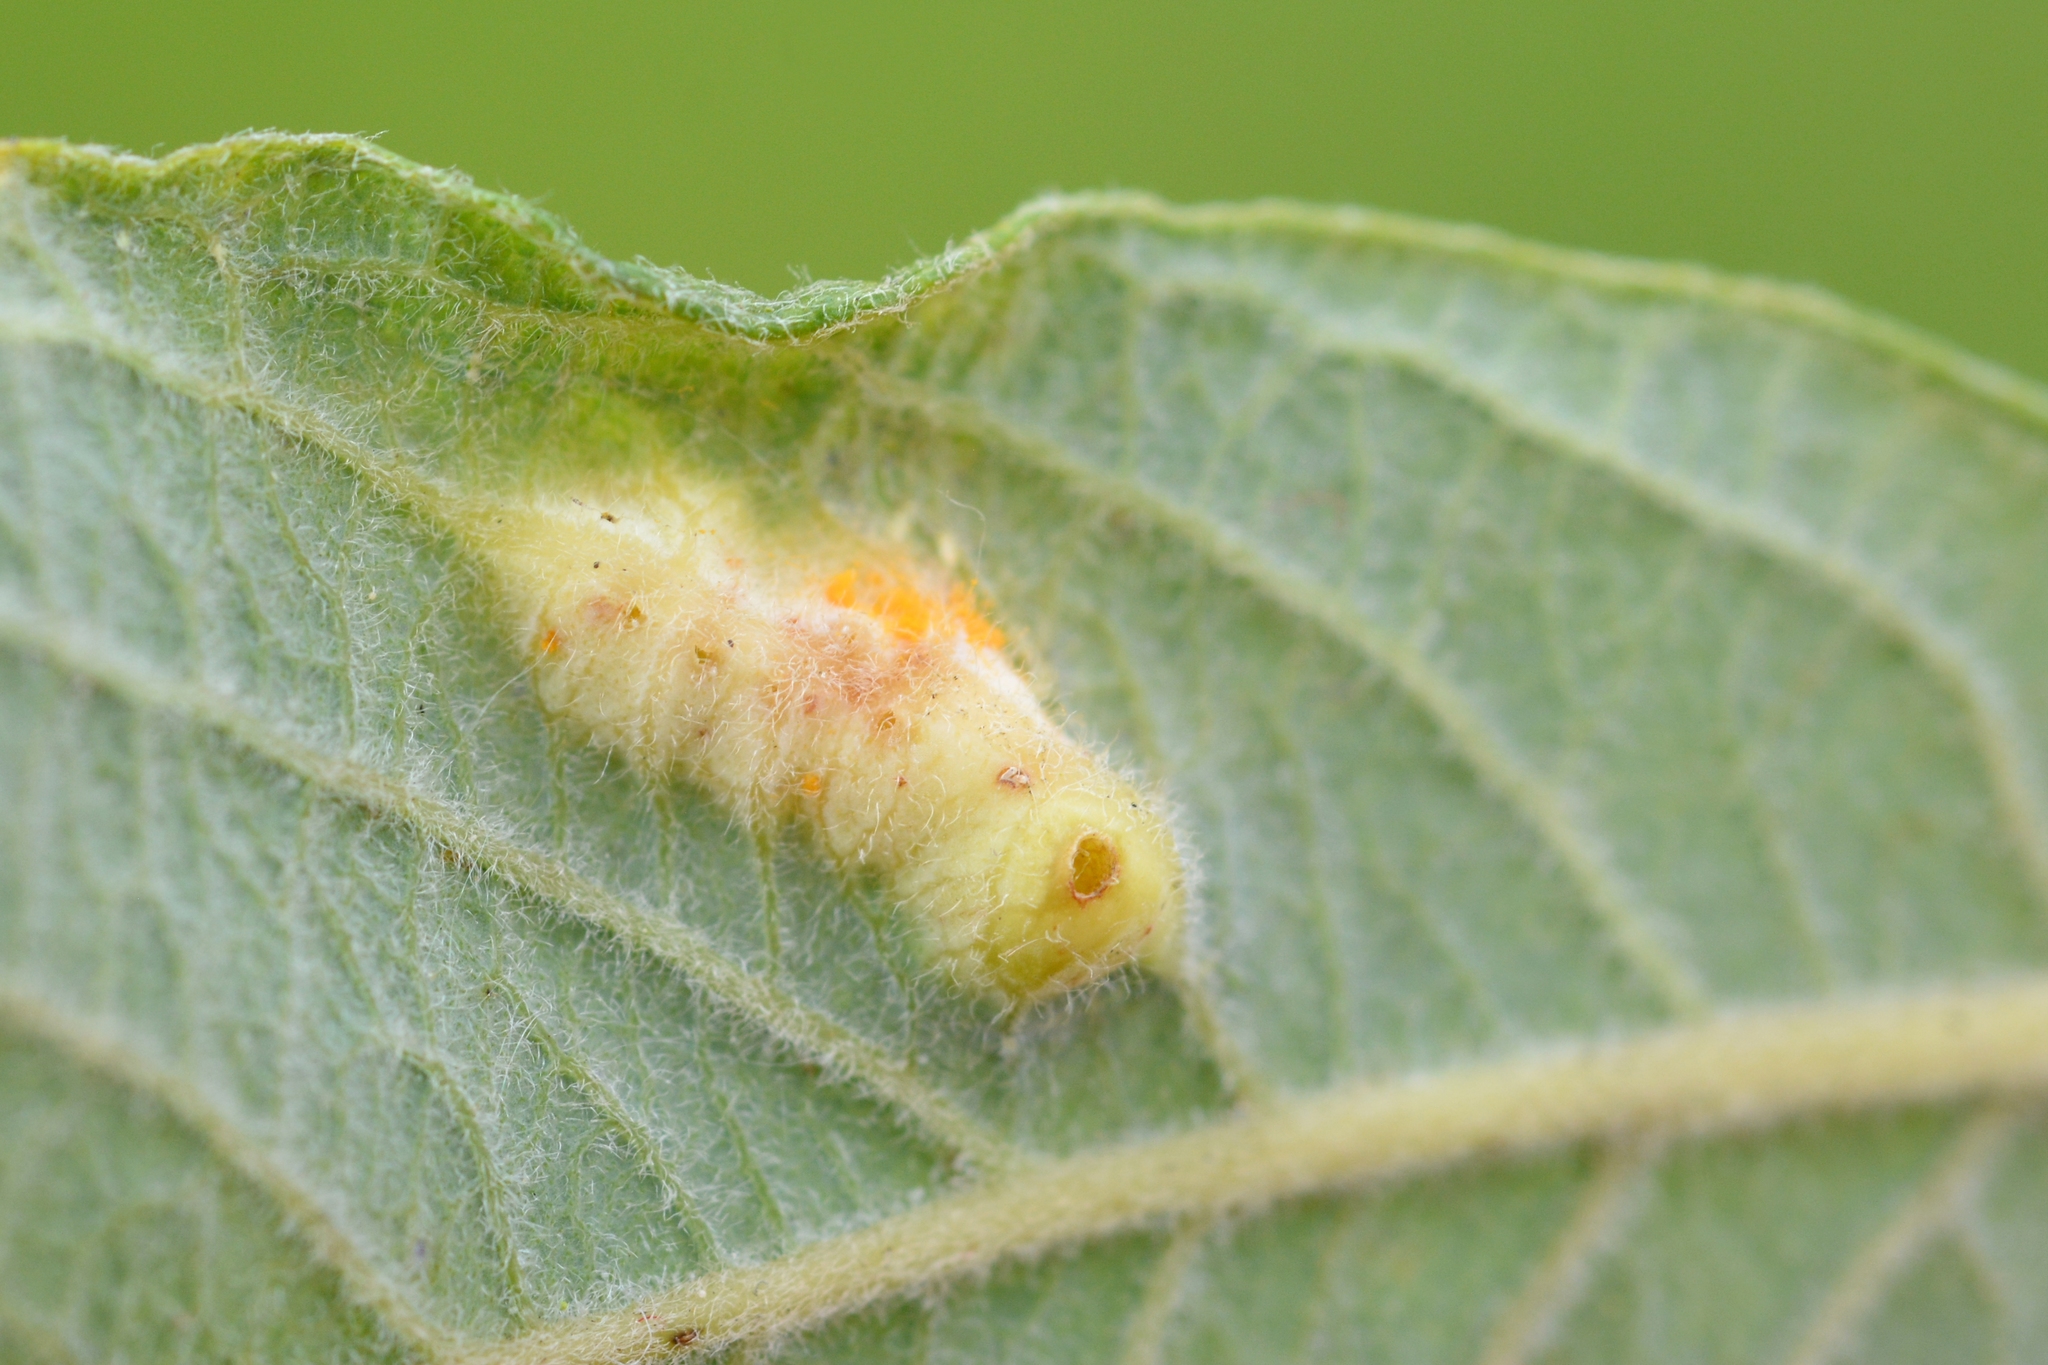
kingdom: Animalia
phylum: Arthropoda
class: Insecta
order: Diptera
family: Cecidomyiidae
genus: Iteomyia
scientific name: Iteomyia major
